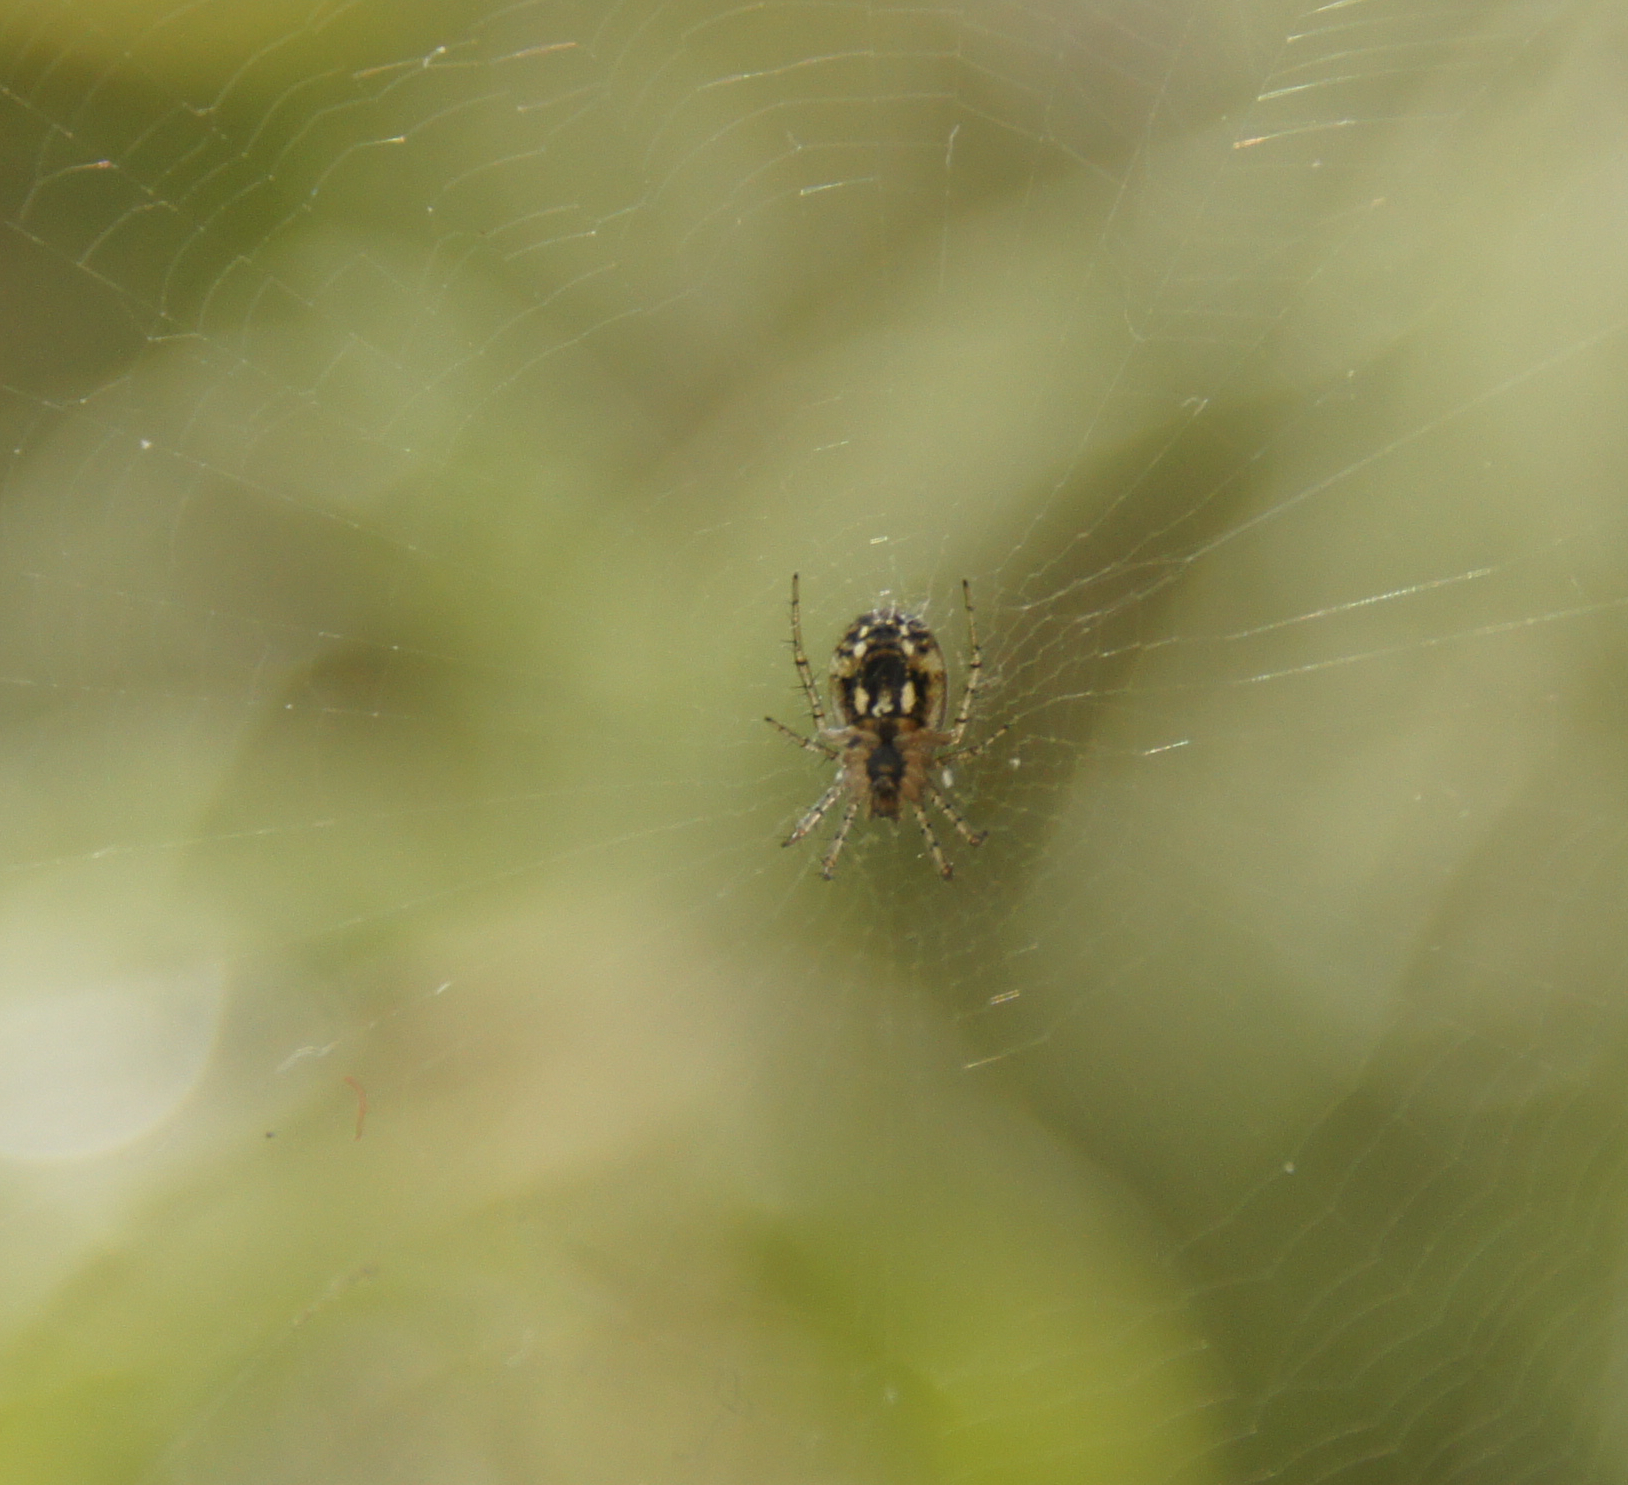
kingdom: Animalia
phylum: Arthropoda
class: Arachnida
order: Araneae
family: Araneidae
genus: Mangora
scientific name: Mangora acalypha
